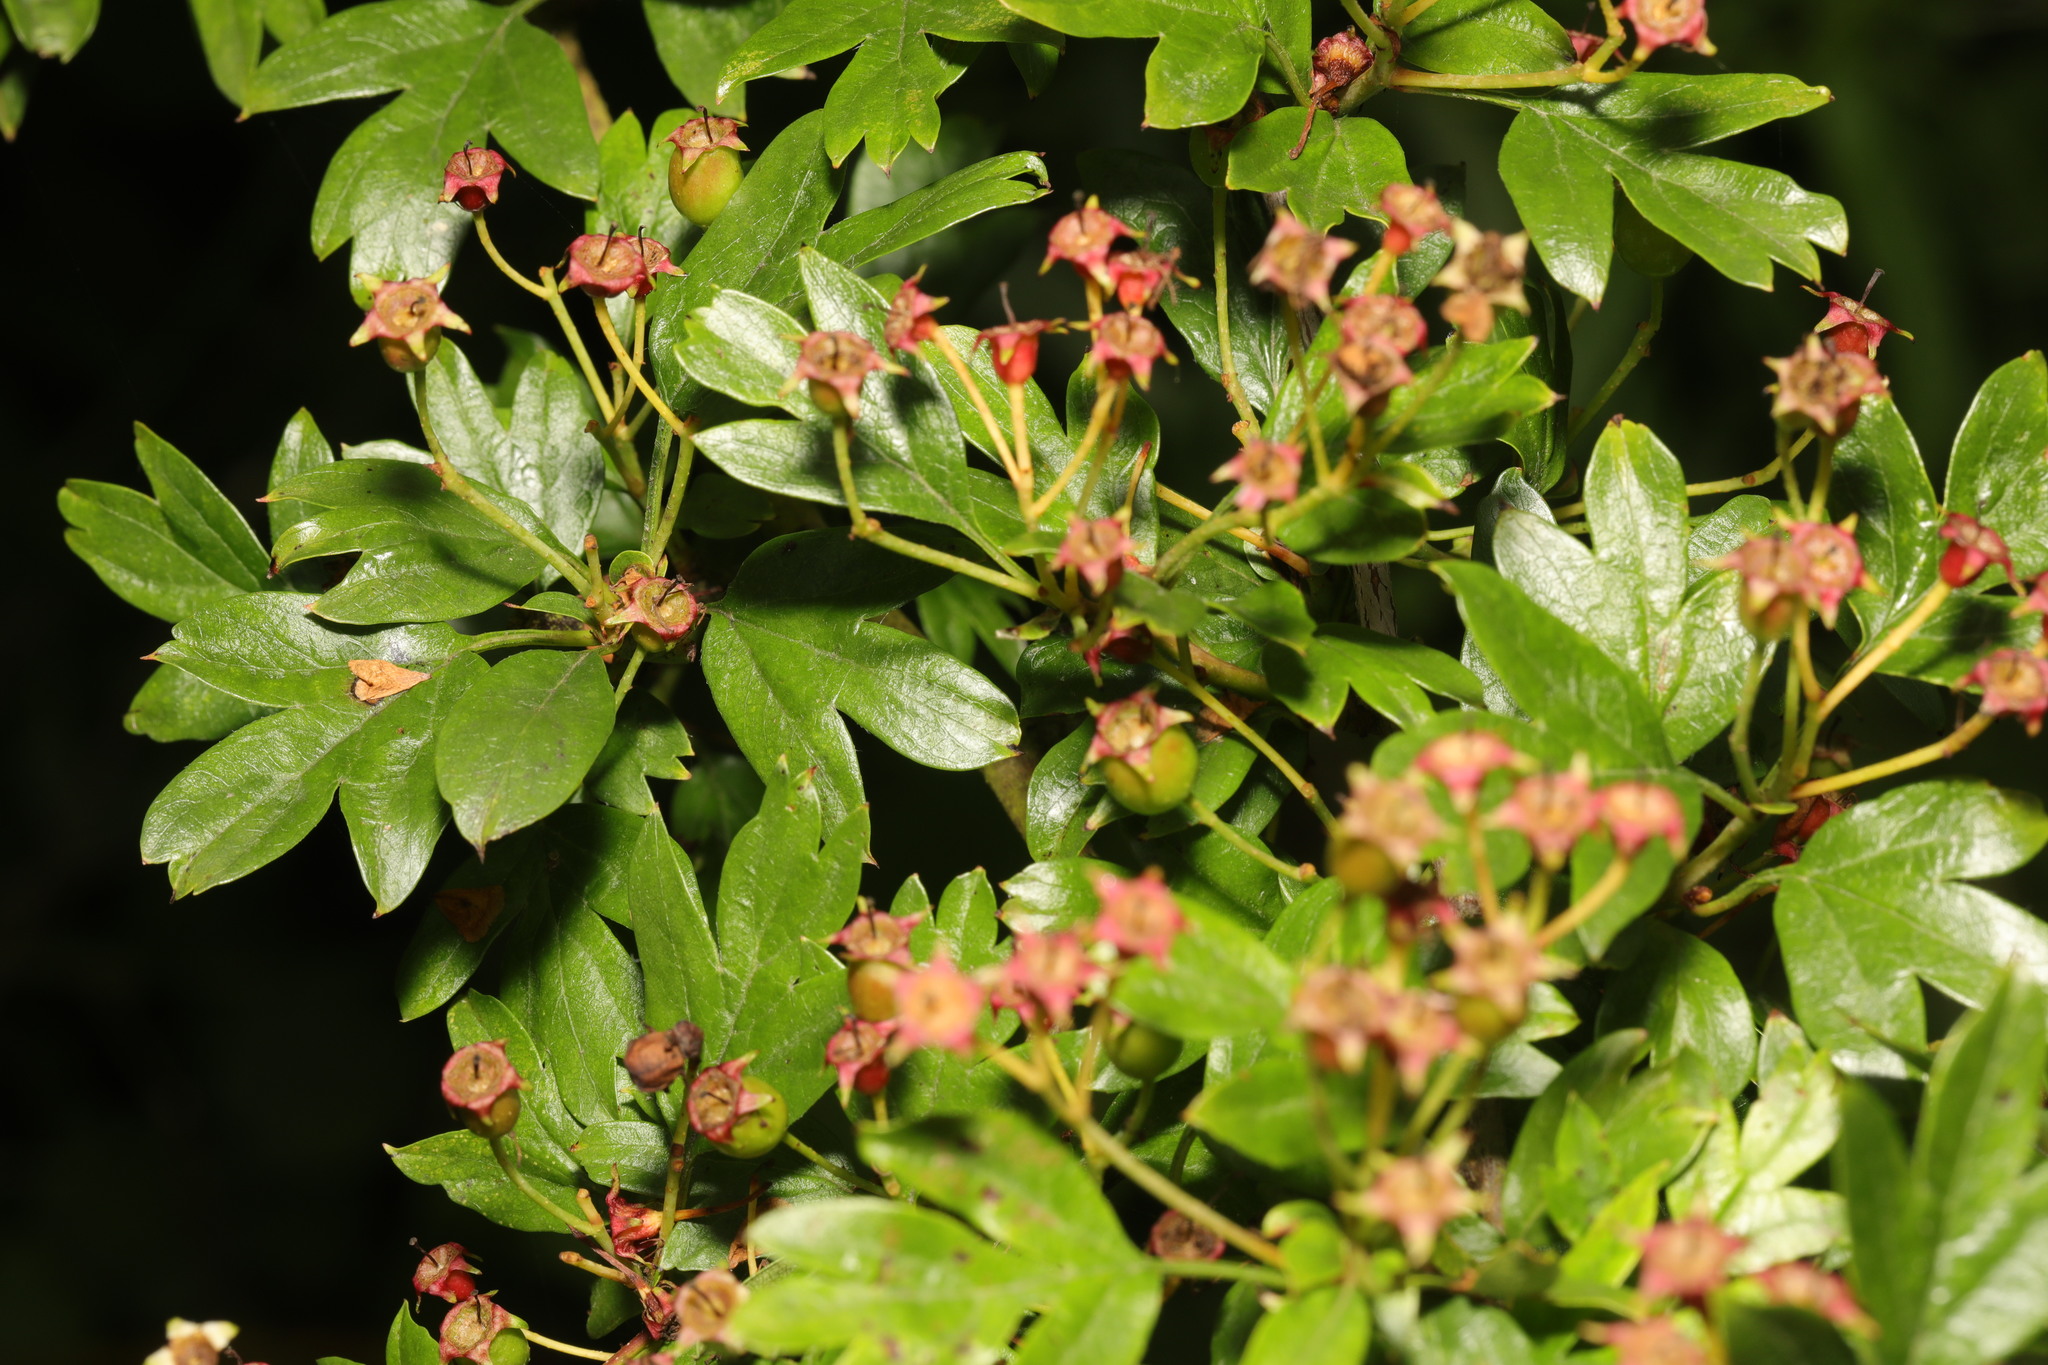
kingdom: Plantae
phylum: Tracheophyta
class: Magnoliopsida
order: Rosales
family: Rosaceae
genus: Crataegus
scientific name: Crataegus monogyna
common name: Hawthorn
